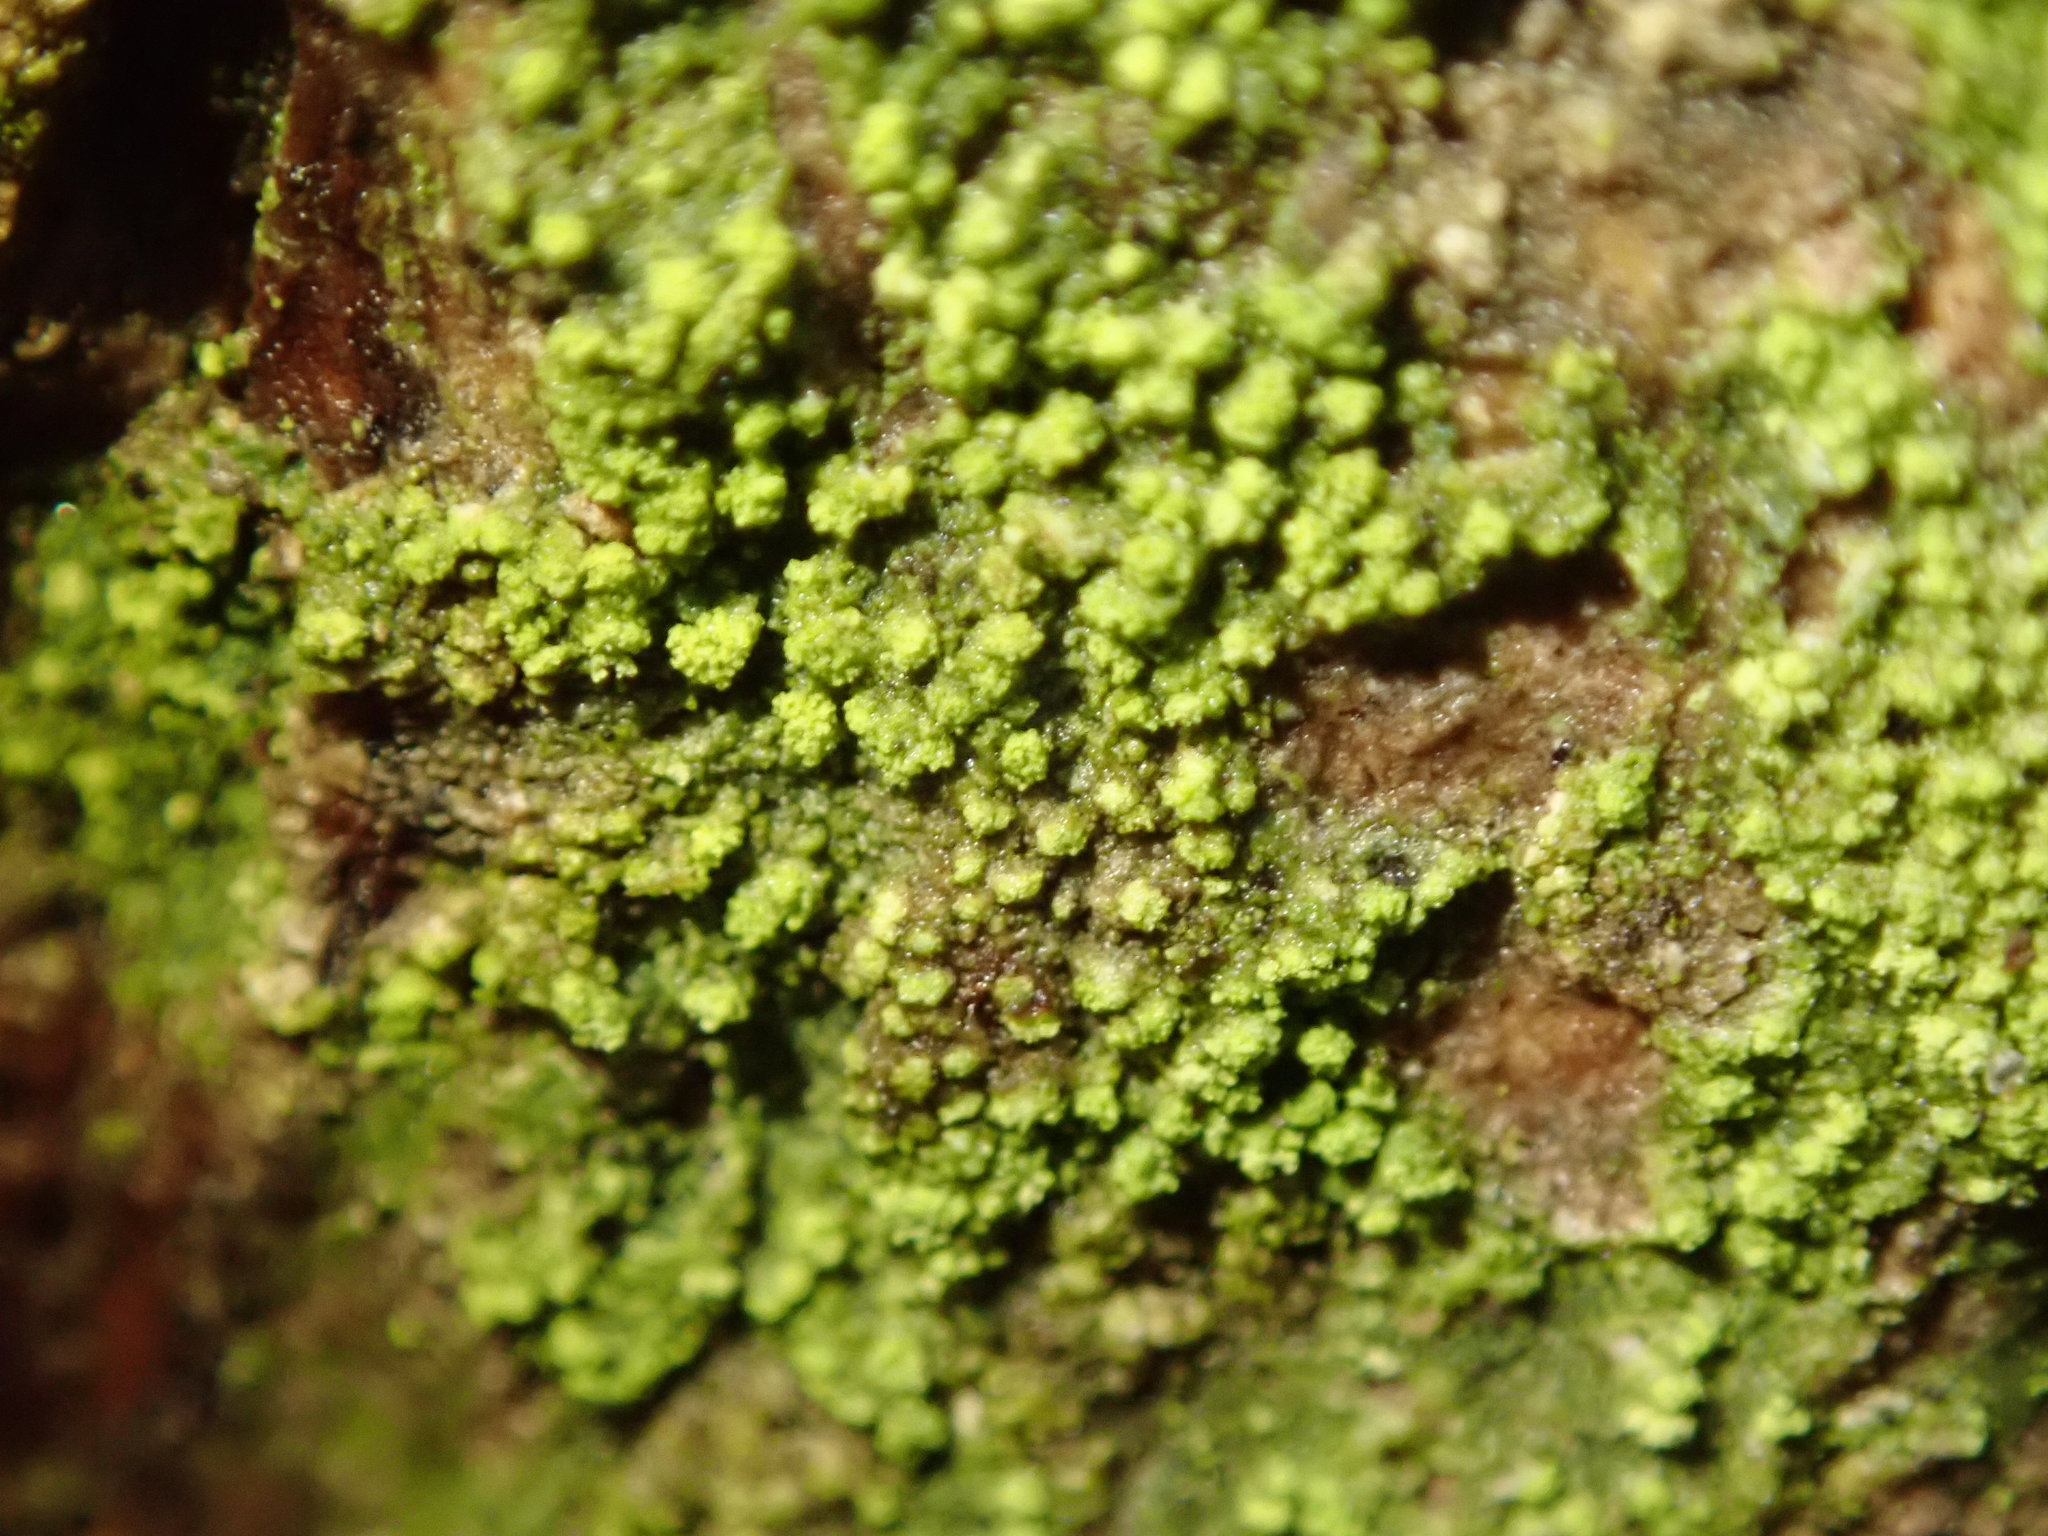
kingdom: Fungi
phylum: Ascomycota
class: Lecanoromycetes
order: Lecanorales
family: Ramalinaceae
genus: Lecania
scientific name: Lecania croatica
